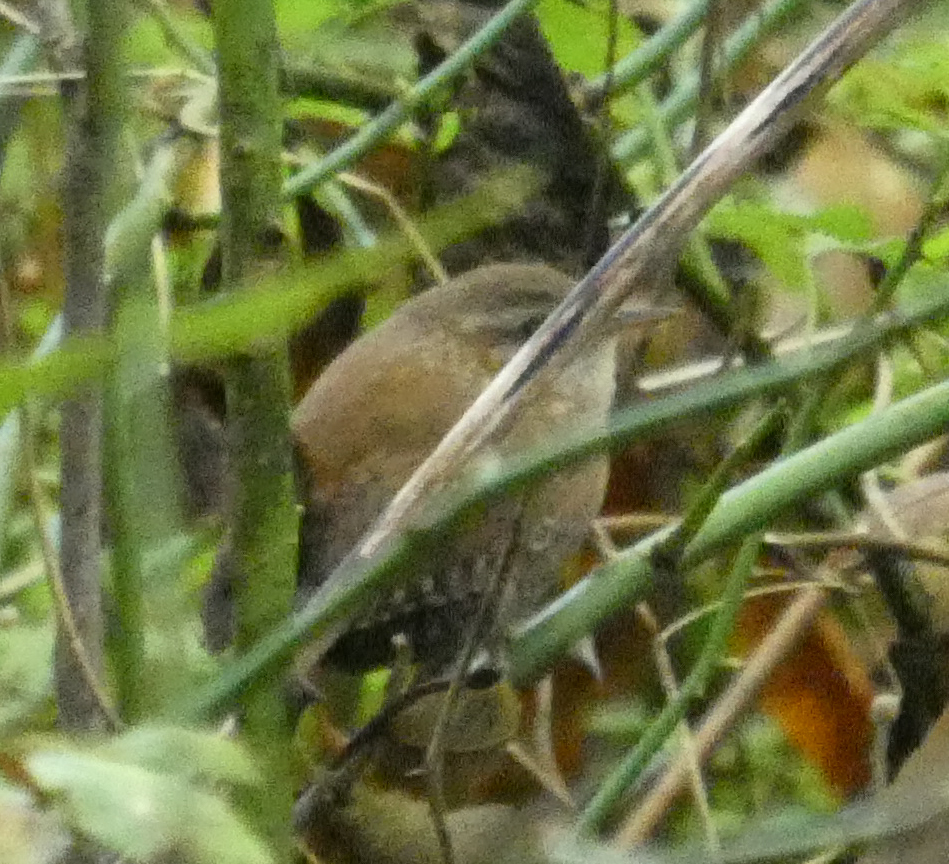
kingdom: Animalia
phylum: Chordata
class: Aves
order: Passeriformes
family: Troglodytidae
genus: Troglodytes
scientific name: Troglodytes hiemalis
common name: Winter wren
